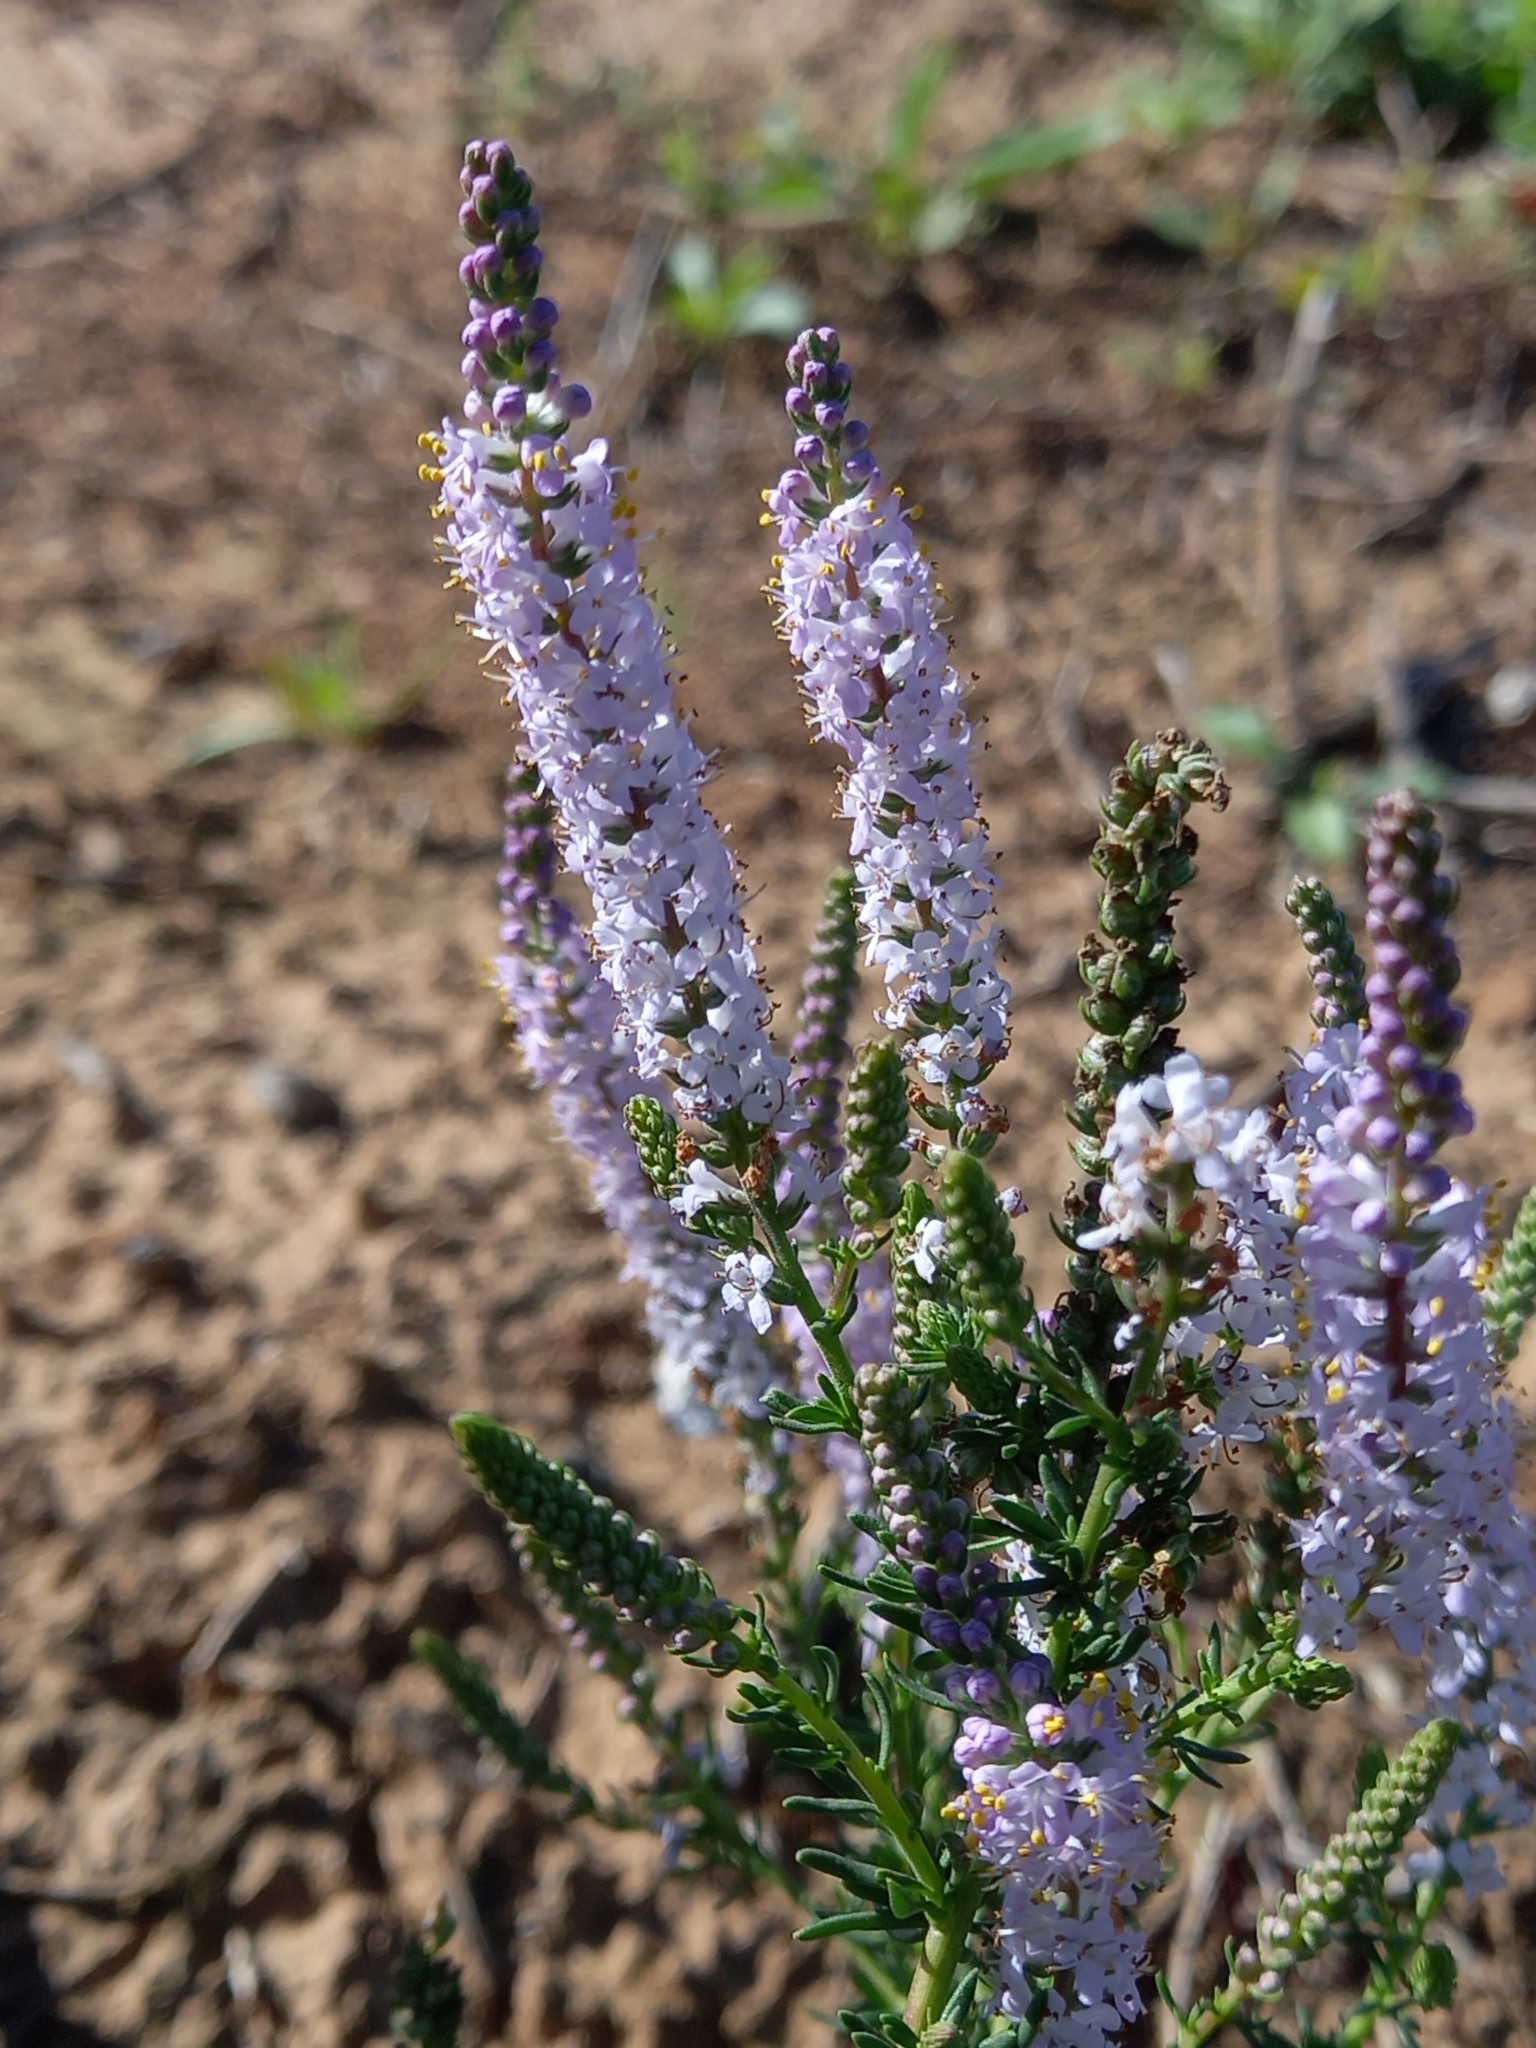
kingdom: Plantae
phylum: Tracheophyta
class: Magnoliopsida
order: Lamiales
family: Scrophulariaceae
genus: Selago
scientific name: Selago geniculata
